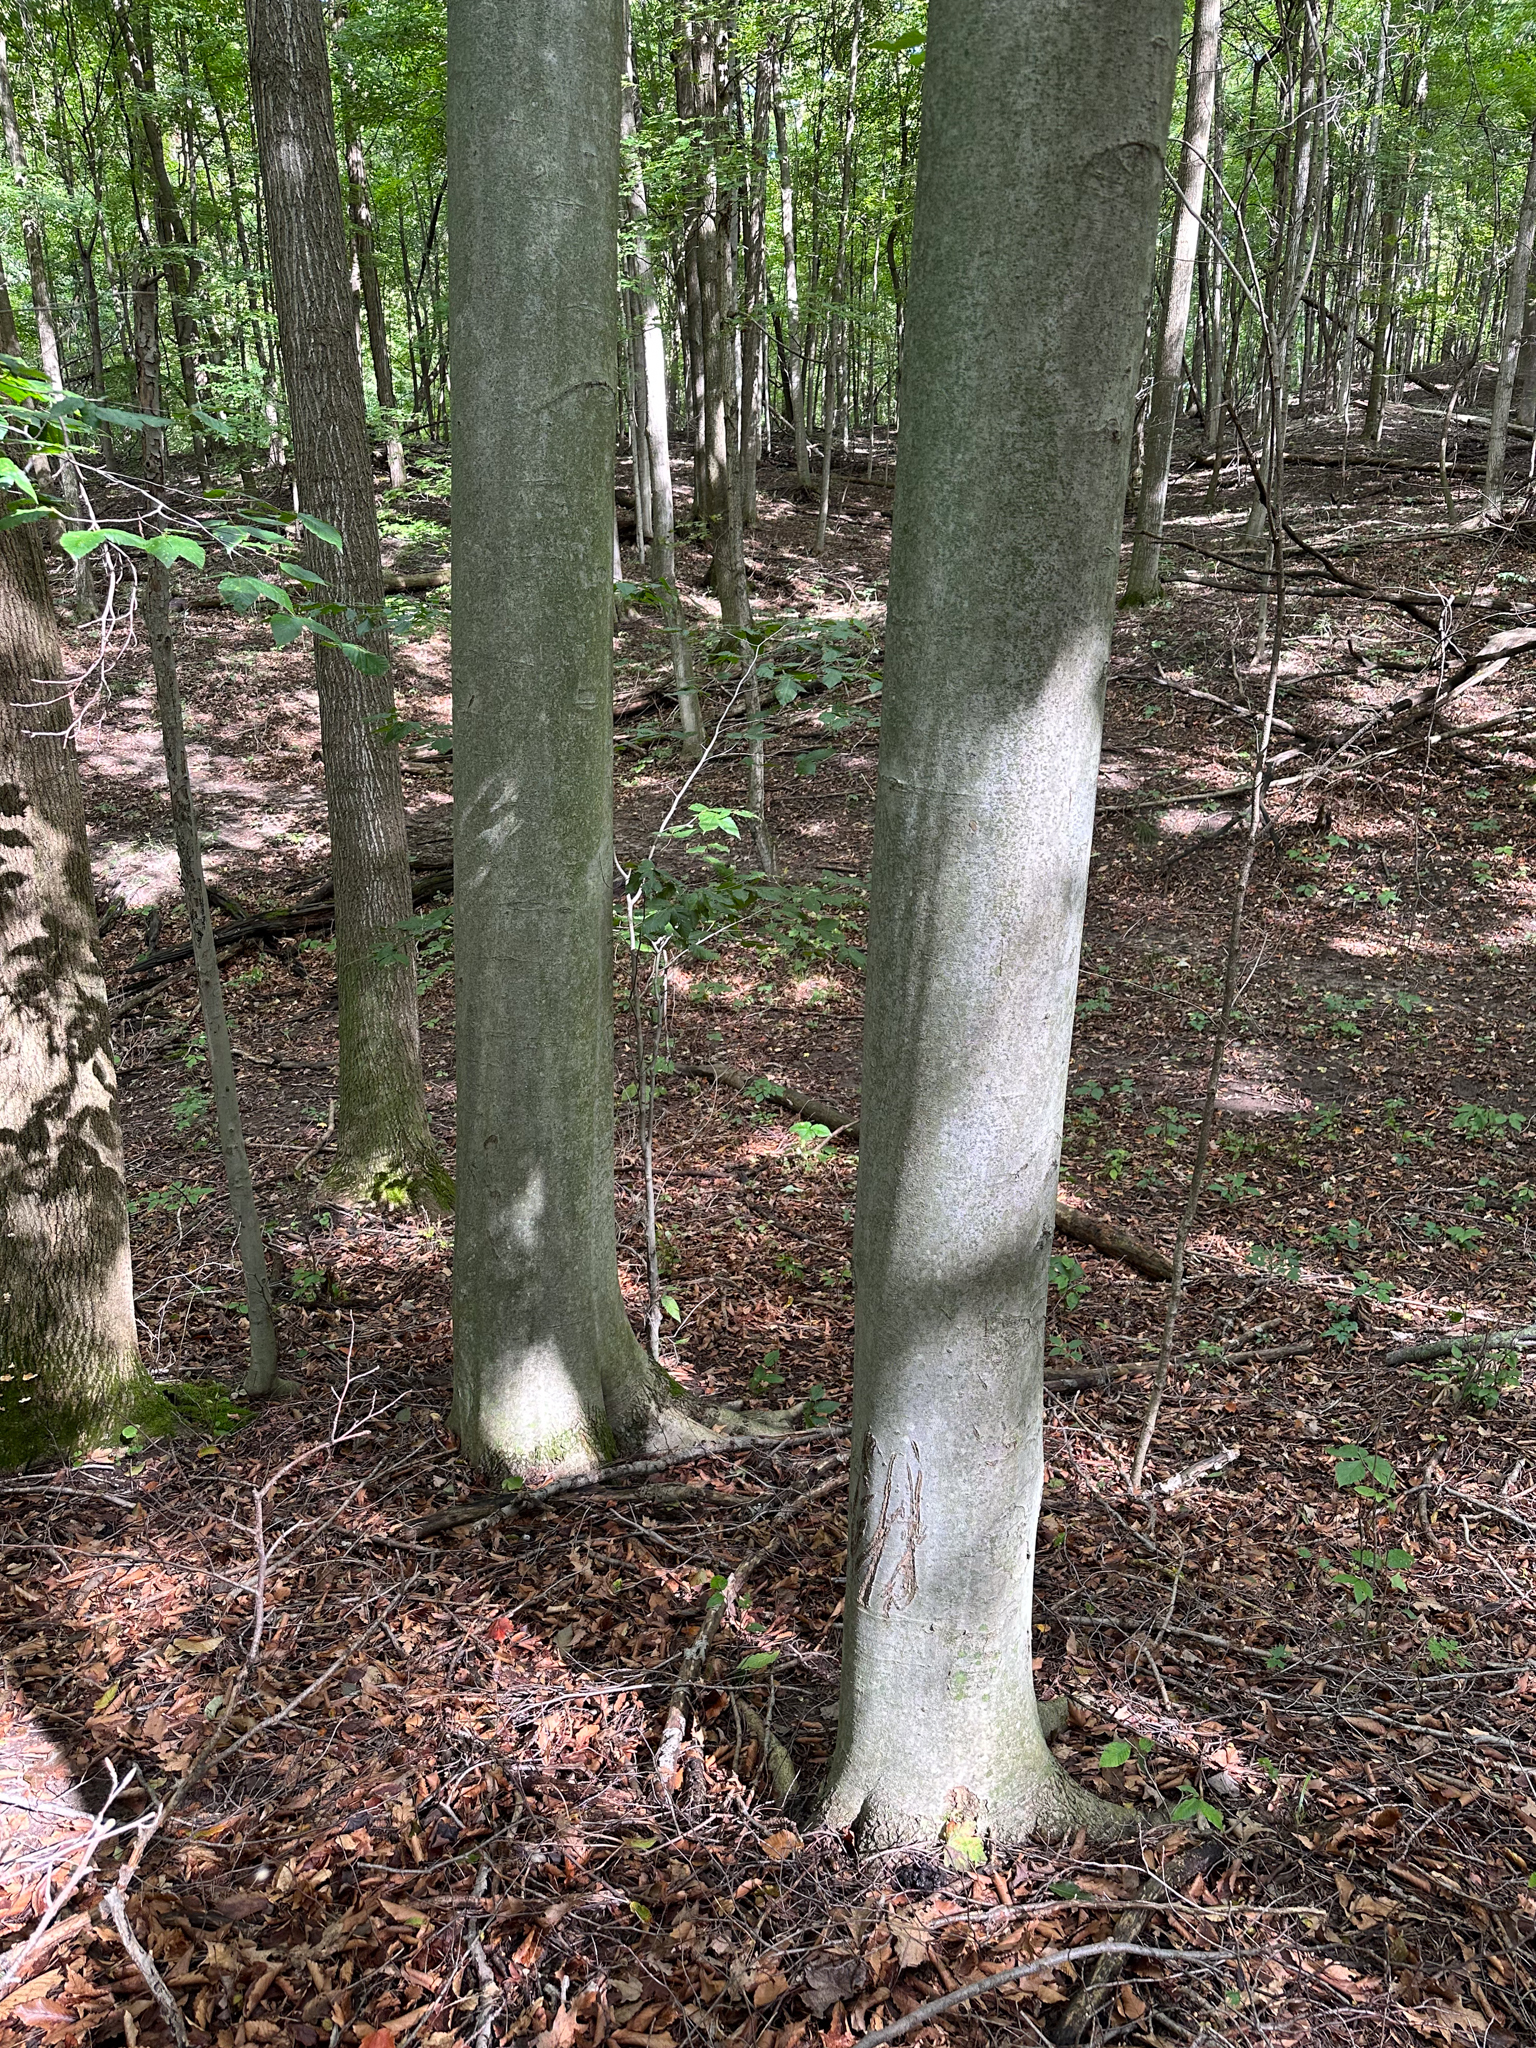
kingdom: Plantae
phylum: Tracheophyta
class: Magnoliopsida
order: Fagales
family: Fagaceae
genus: Fagus
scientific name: Fagus grandifolia
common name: American beech
